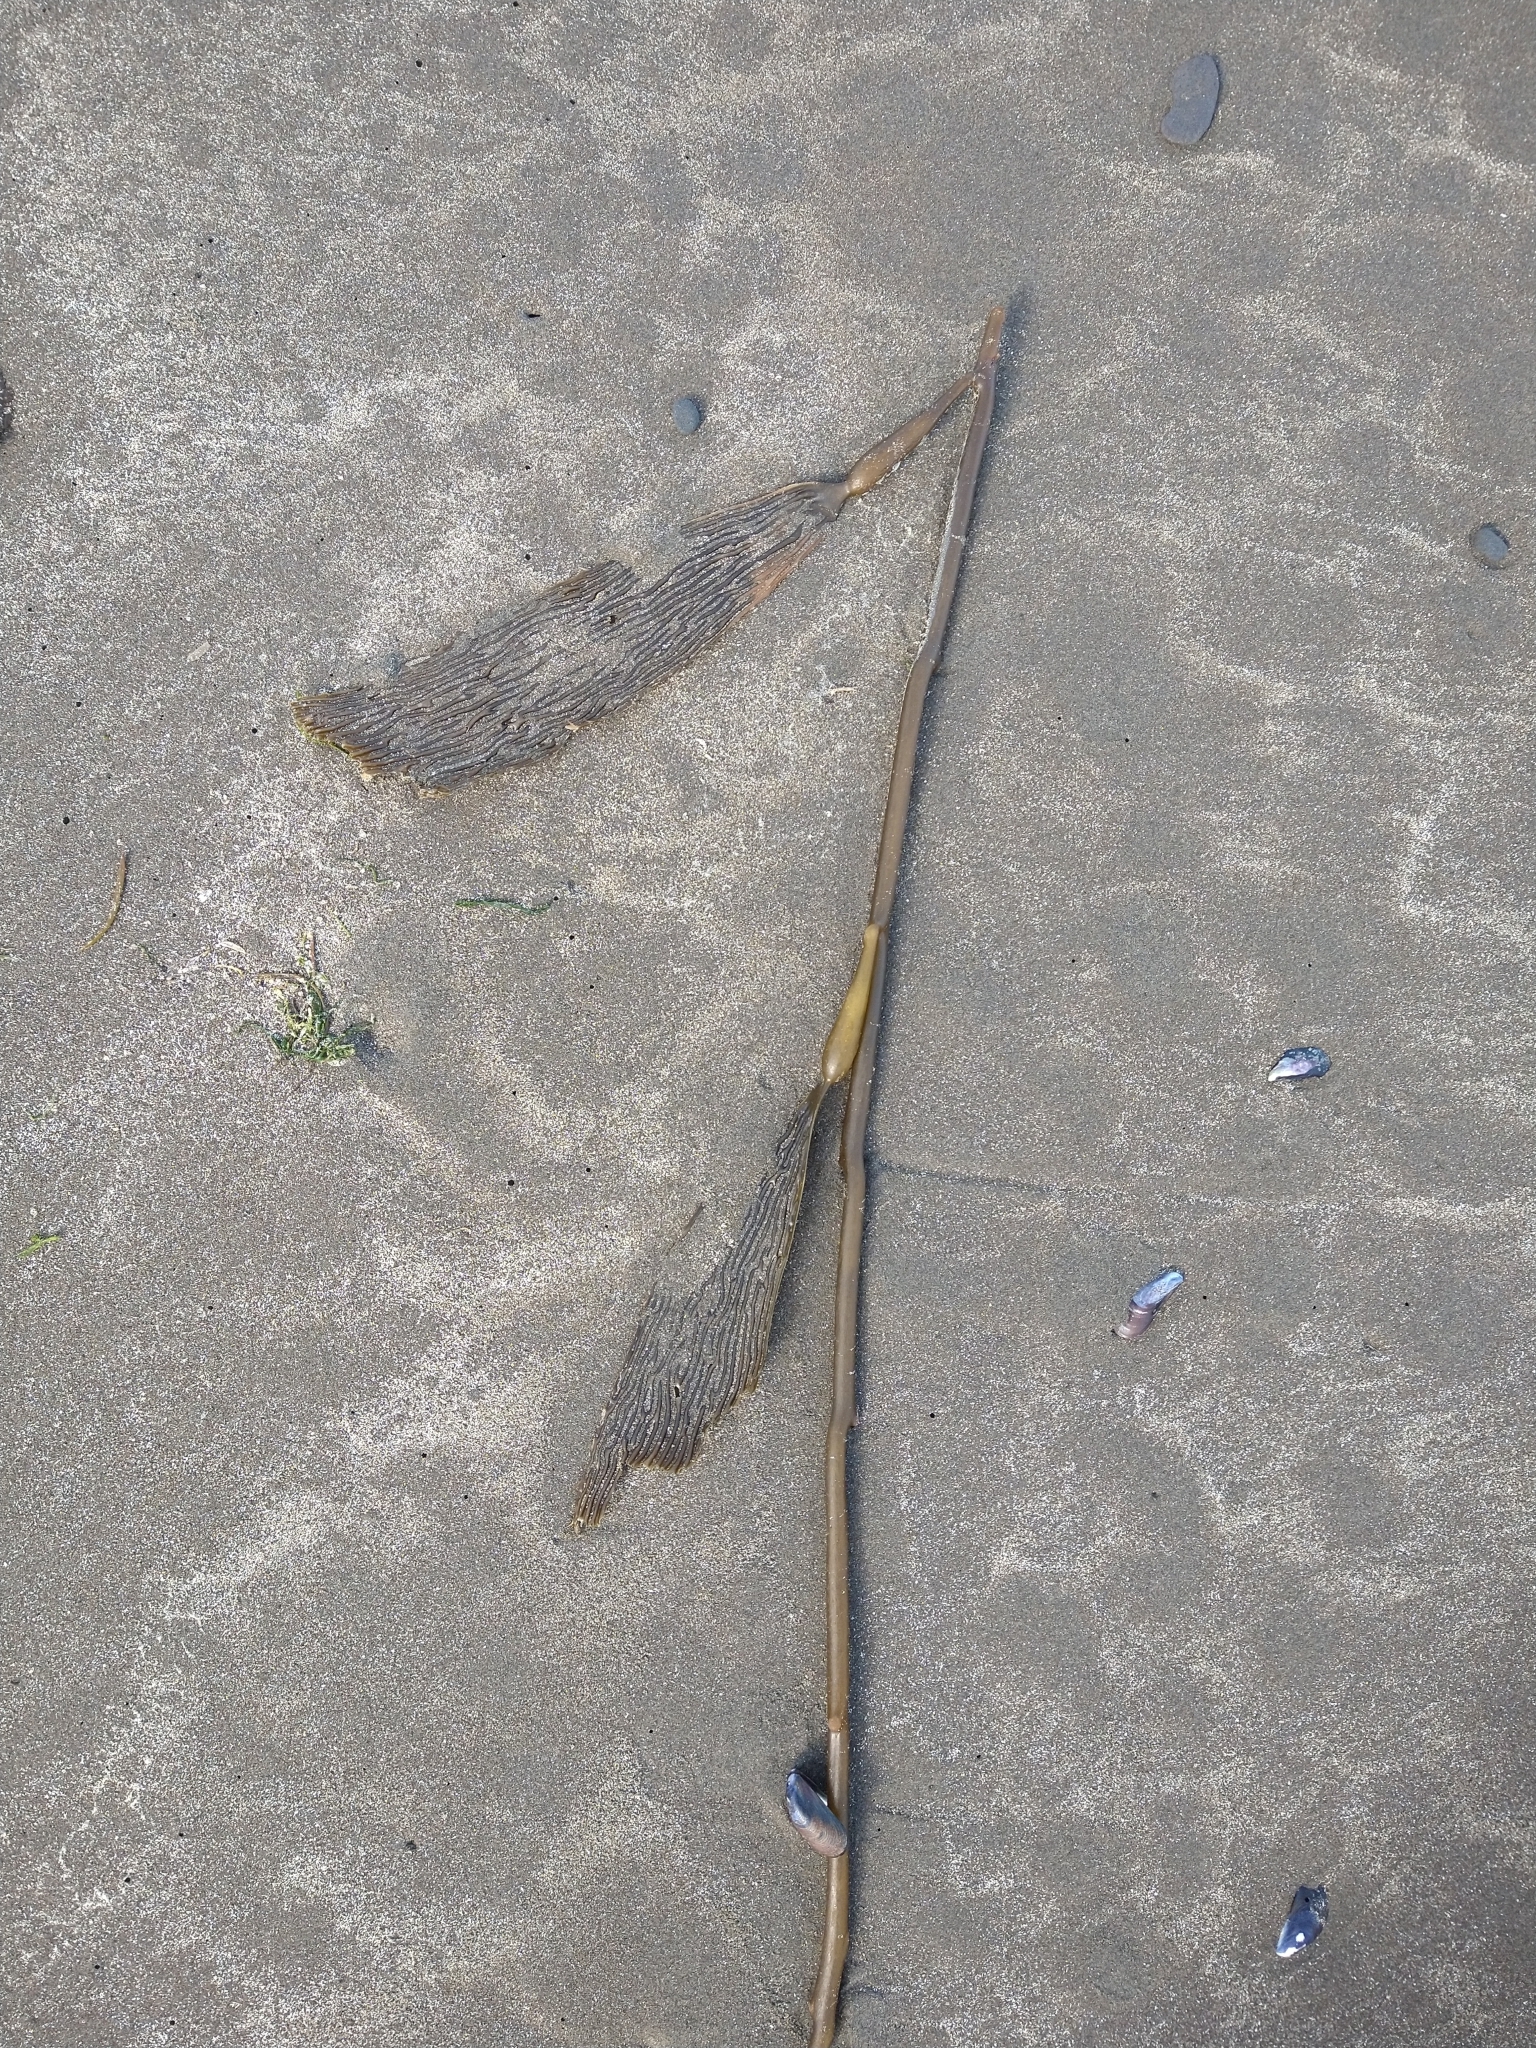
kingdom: Chromista
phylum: Ochrophyta
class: Phaeophyceae
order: Laminariales
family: Laminariaceae
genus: Macrocystis
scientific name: Macrocystis pyrifera
